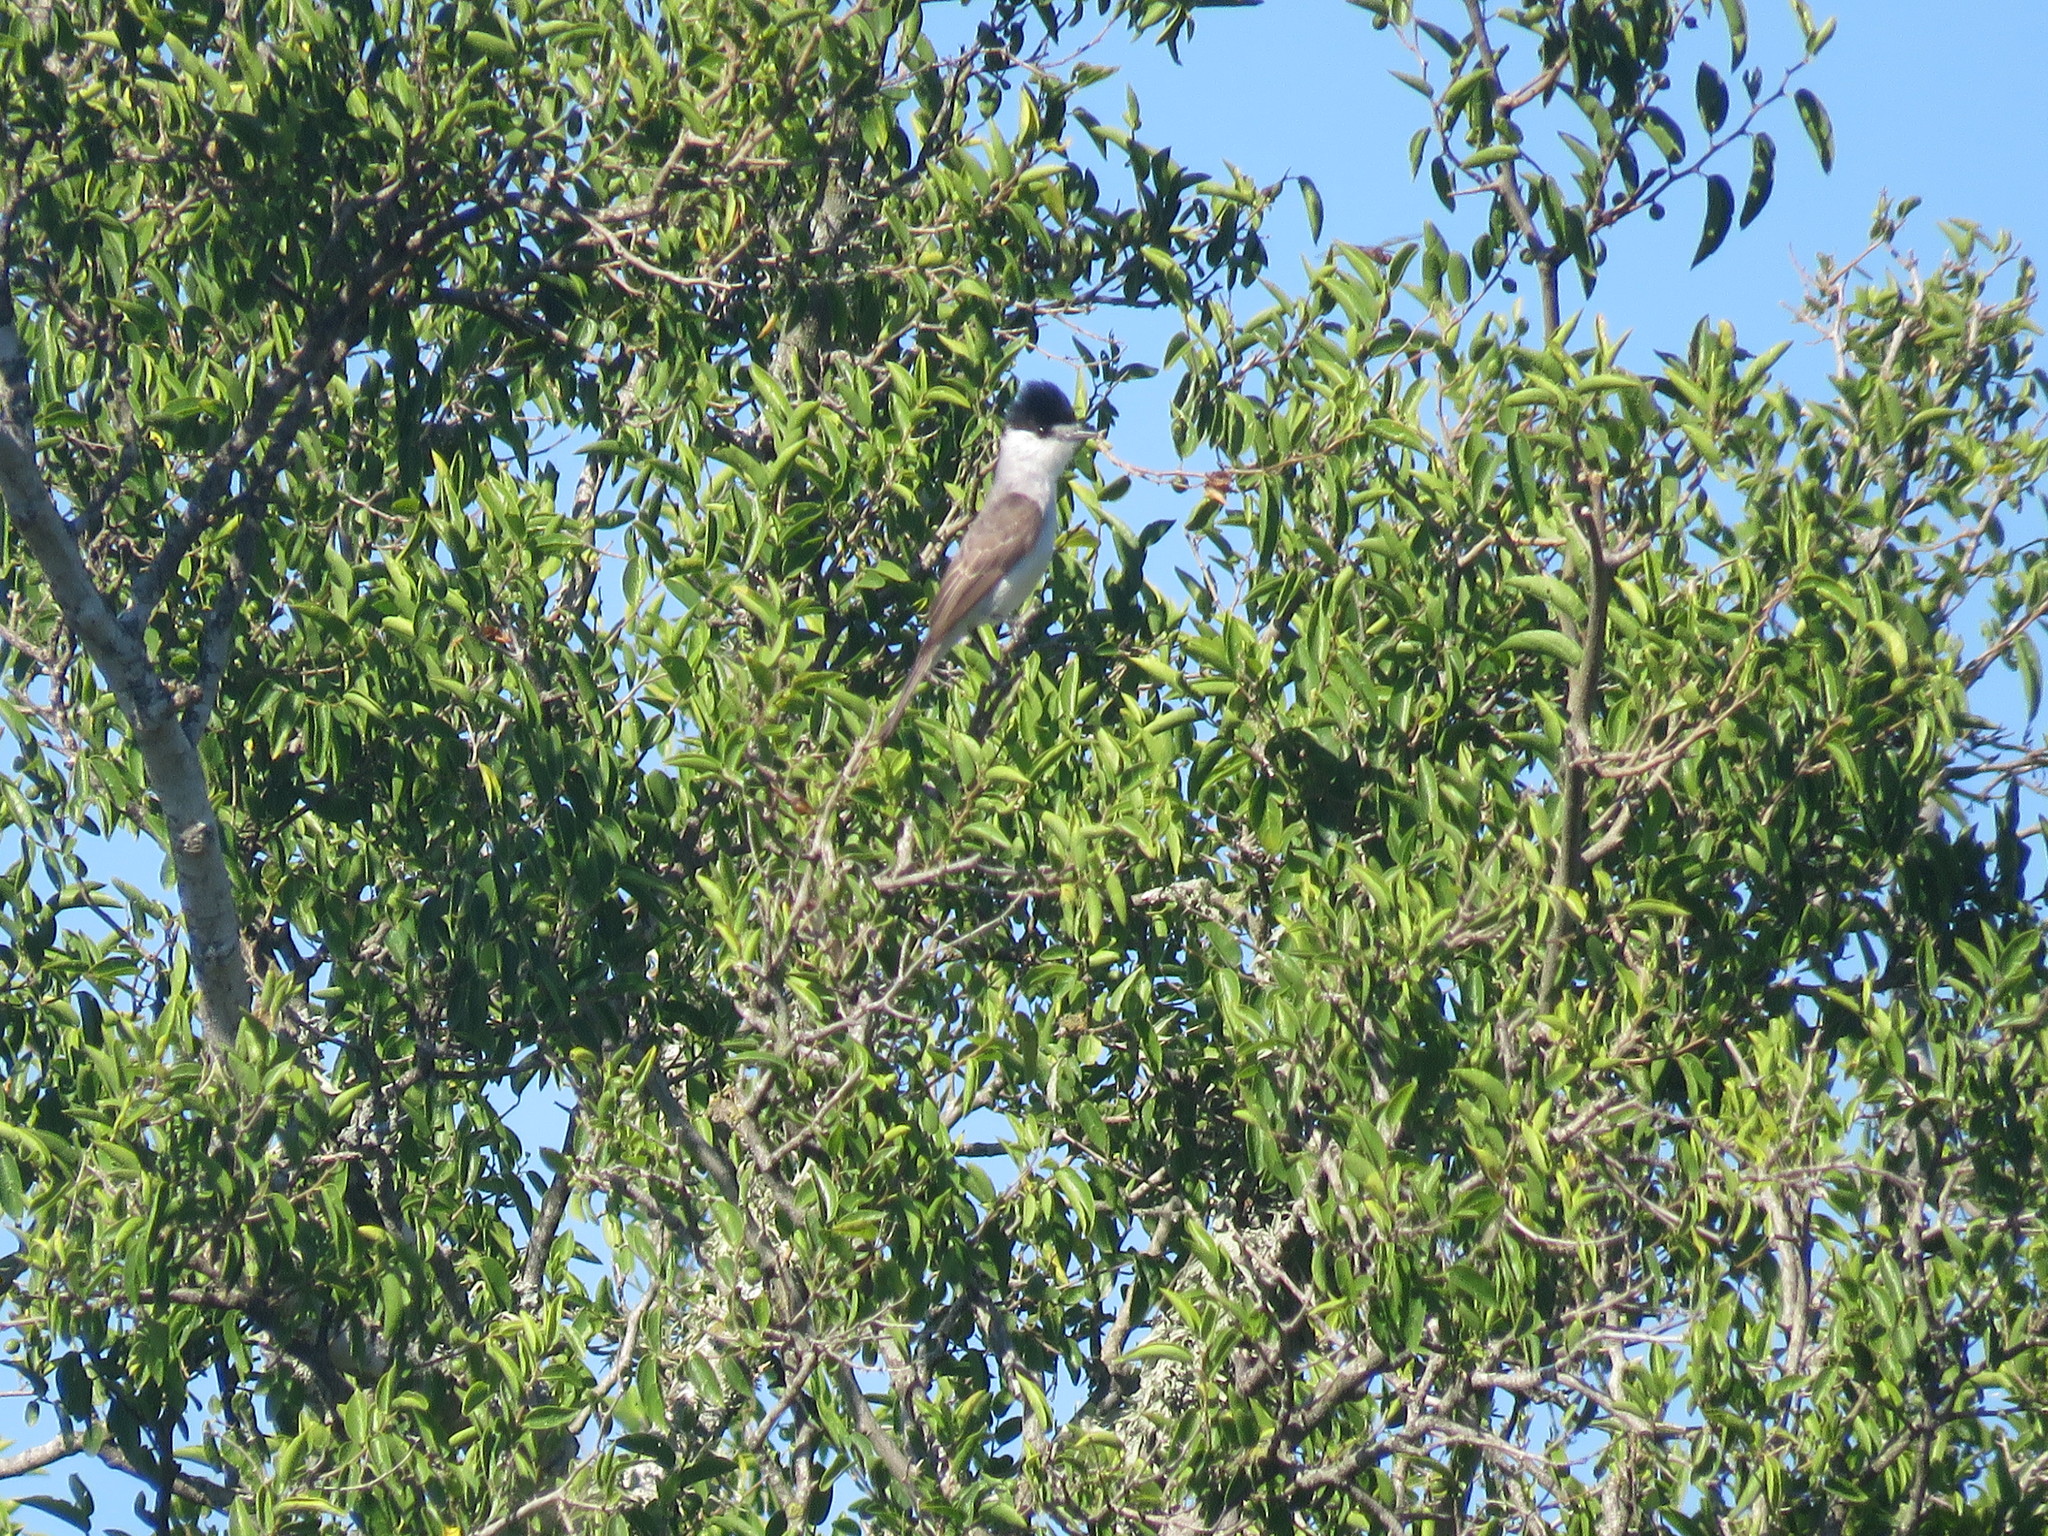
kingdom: Animalia
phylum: Chordata
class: Aves
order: Passeriformes
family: Cotingidae
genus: Xenopsaris
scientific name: Xenopsaris albinucha
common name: White-naped xenopsaris
